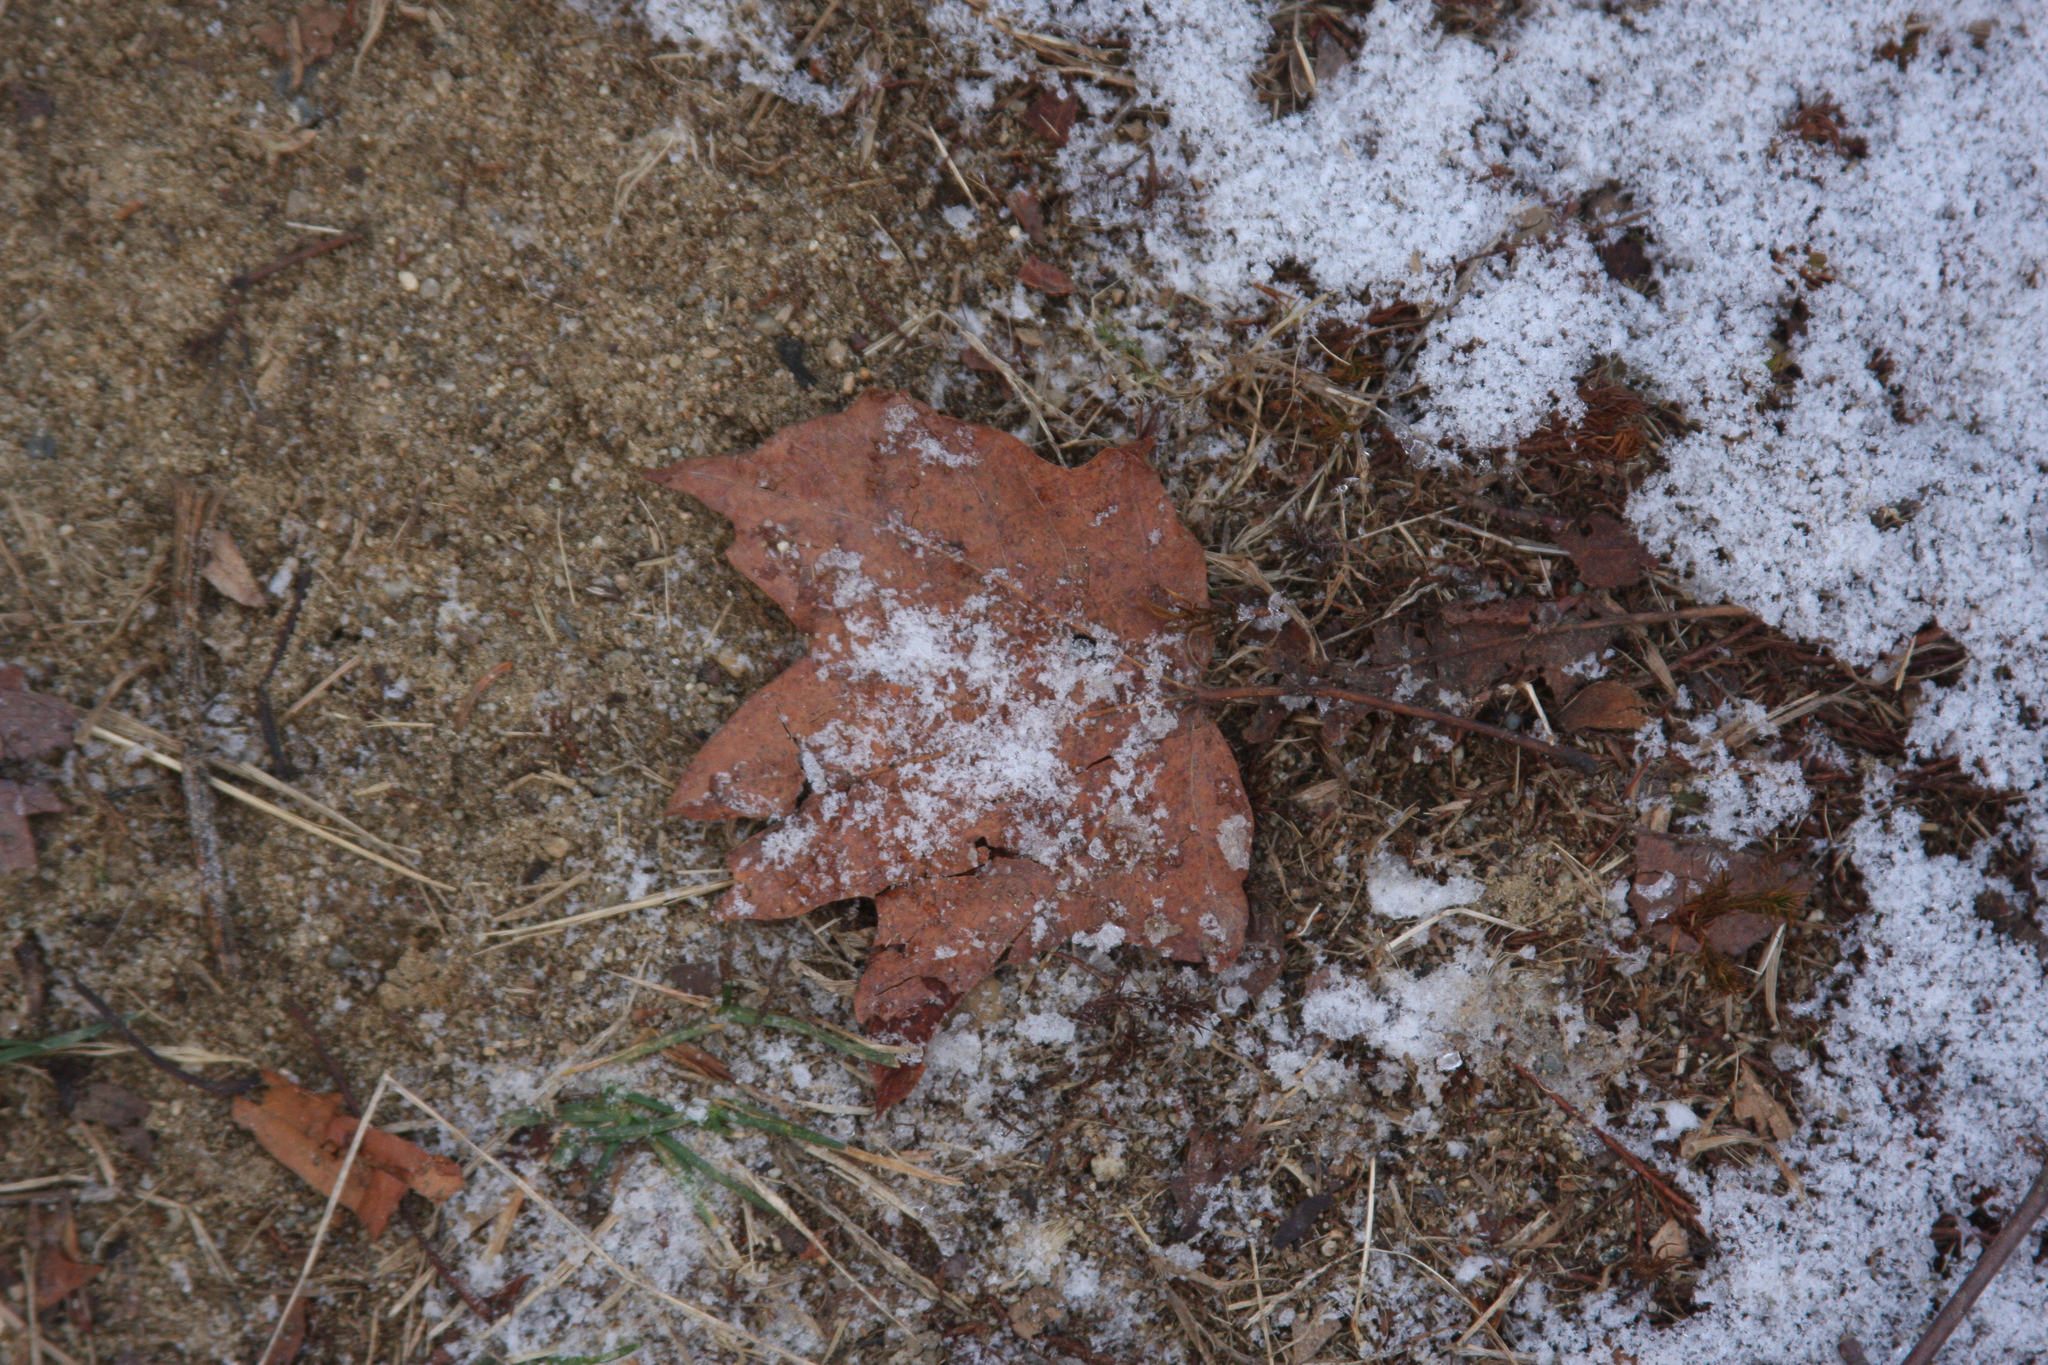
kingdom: Plantae
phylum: Tracheophyta
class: Magnoliopsida
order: Sapindales
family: Sapindaceae
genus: Acer
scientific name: Acer rubrum
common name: Red maple
